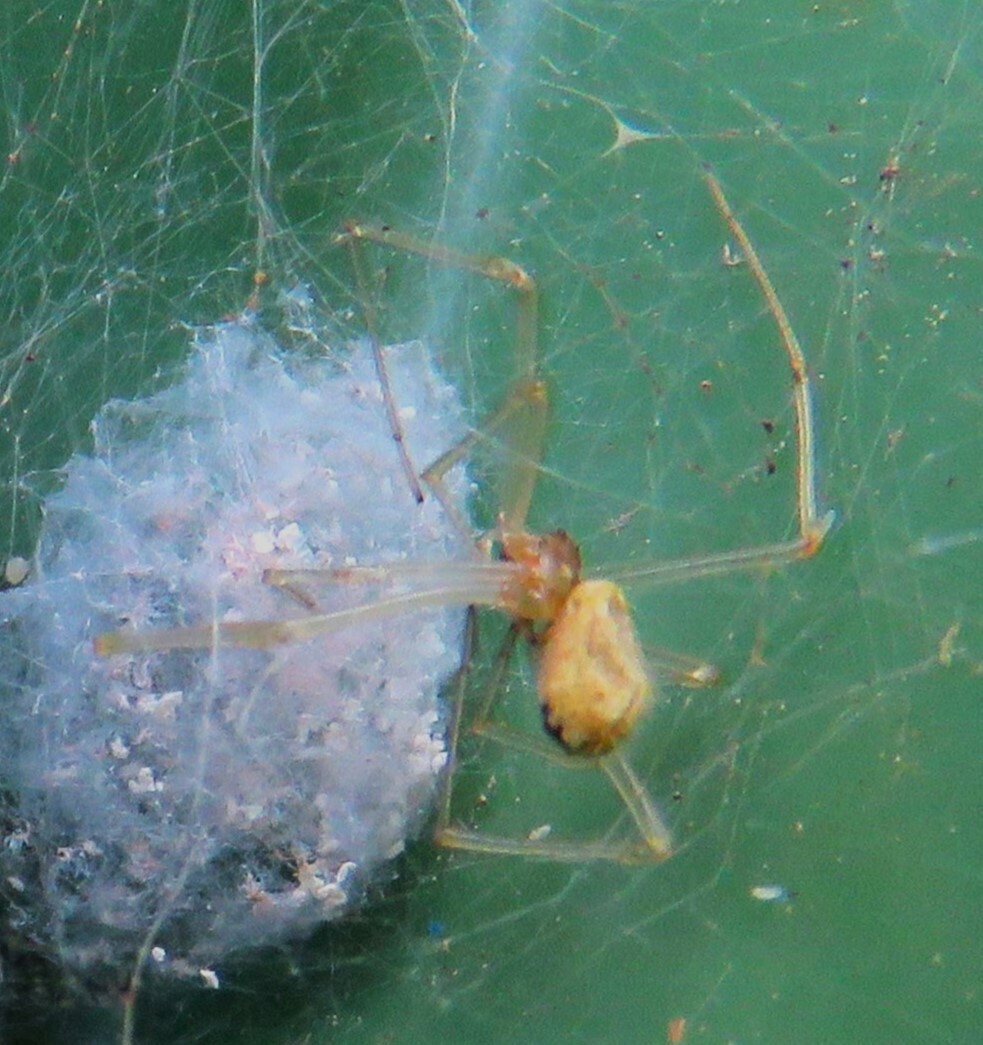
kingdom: Animalia
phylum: Arthropoda
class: Arachnida
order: Araneae
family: Theridiidae
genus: Enoplognatha
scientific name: Enoplognatha ovata
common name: Common candy-striped spider
